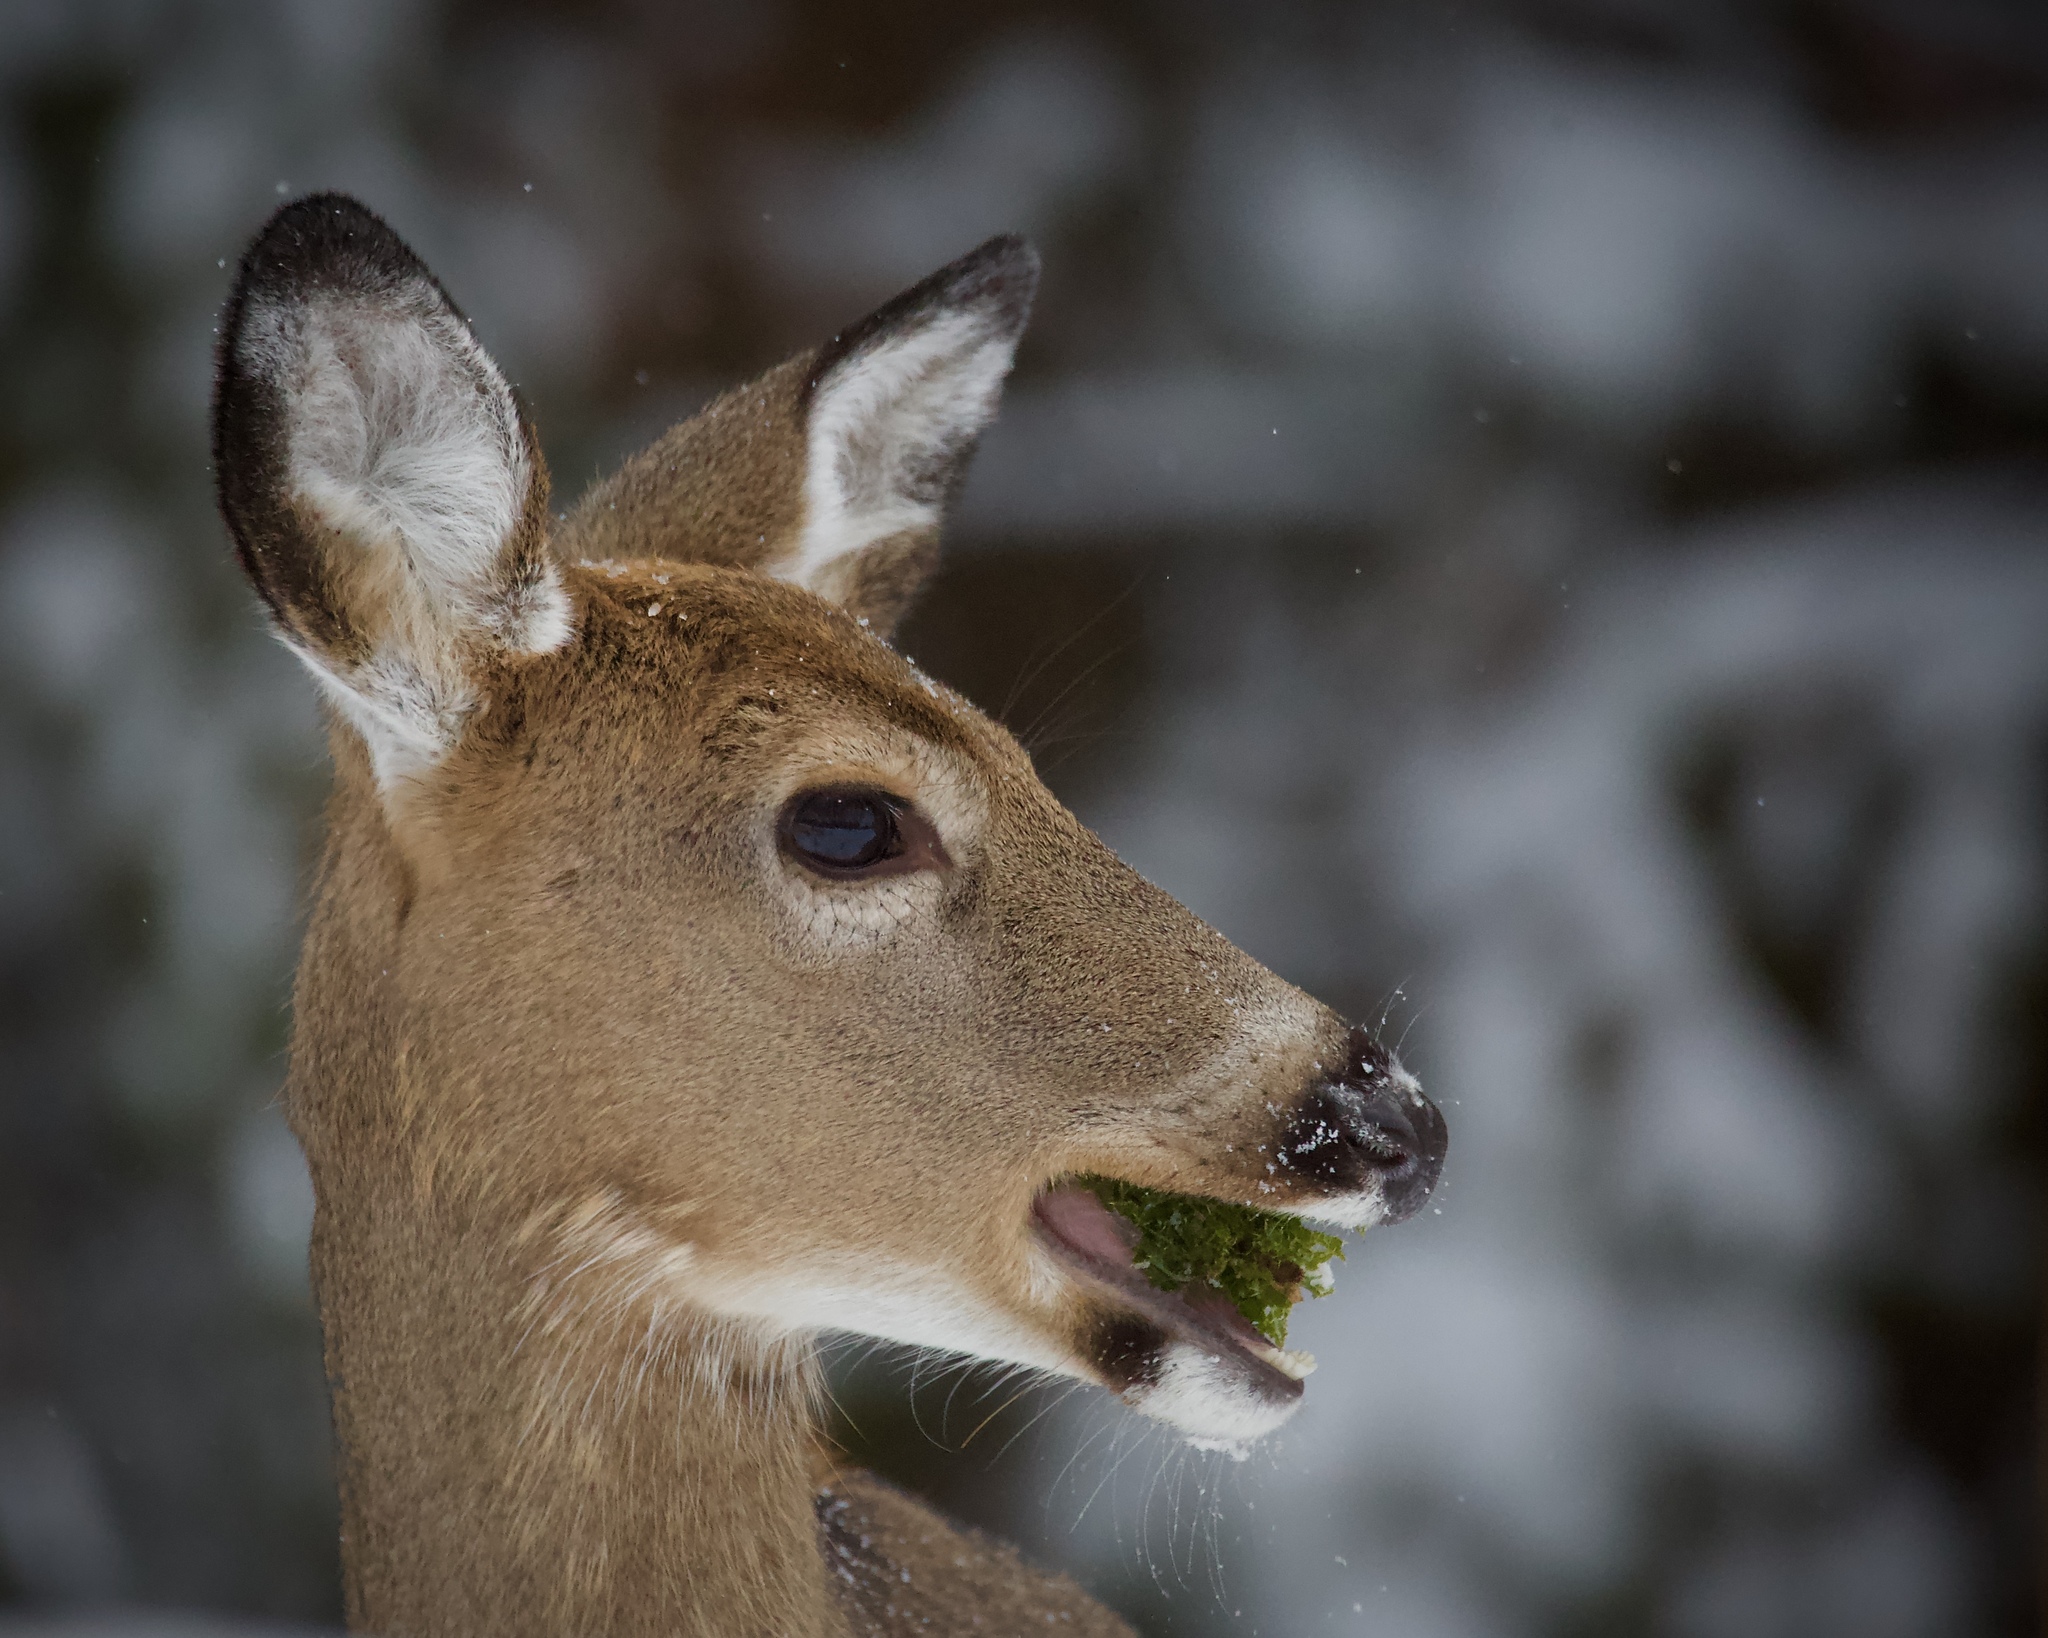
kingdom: Animalia
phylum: Chordata
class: Mammalia
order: Artiodactyla
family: Cervidae
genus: Odocoileus
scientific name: Odocoileus virginianus
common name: White-tailed deer
